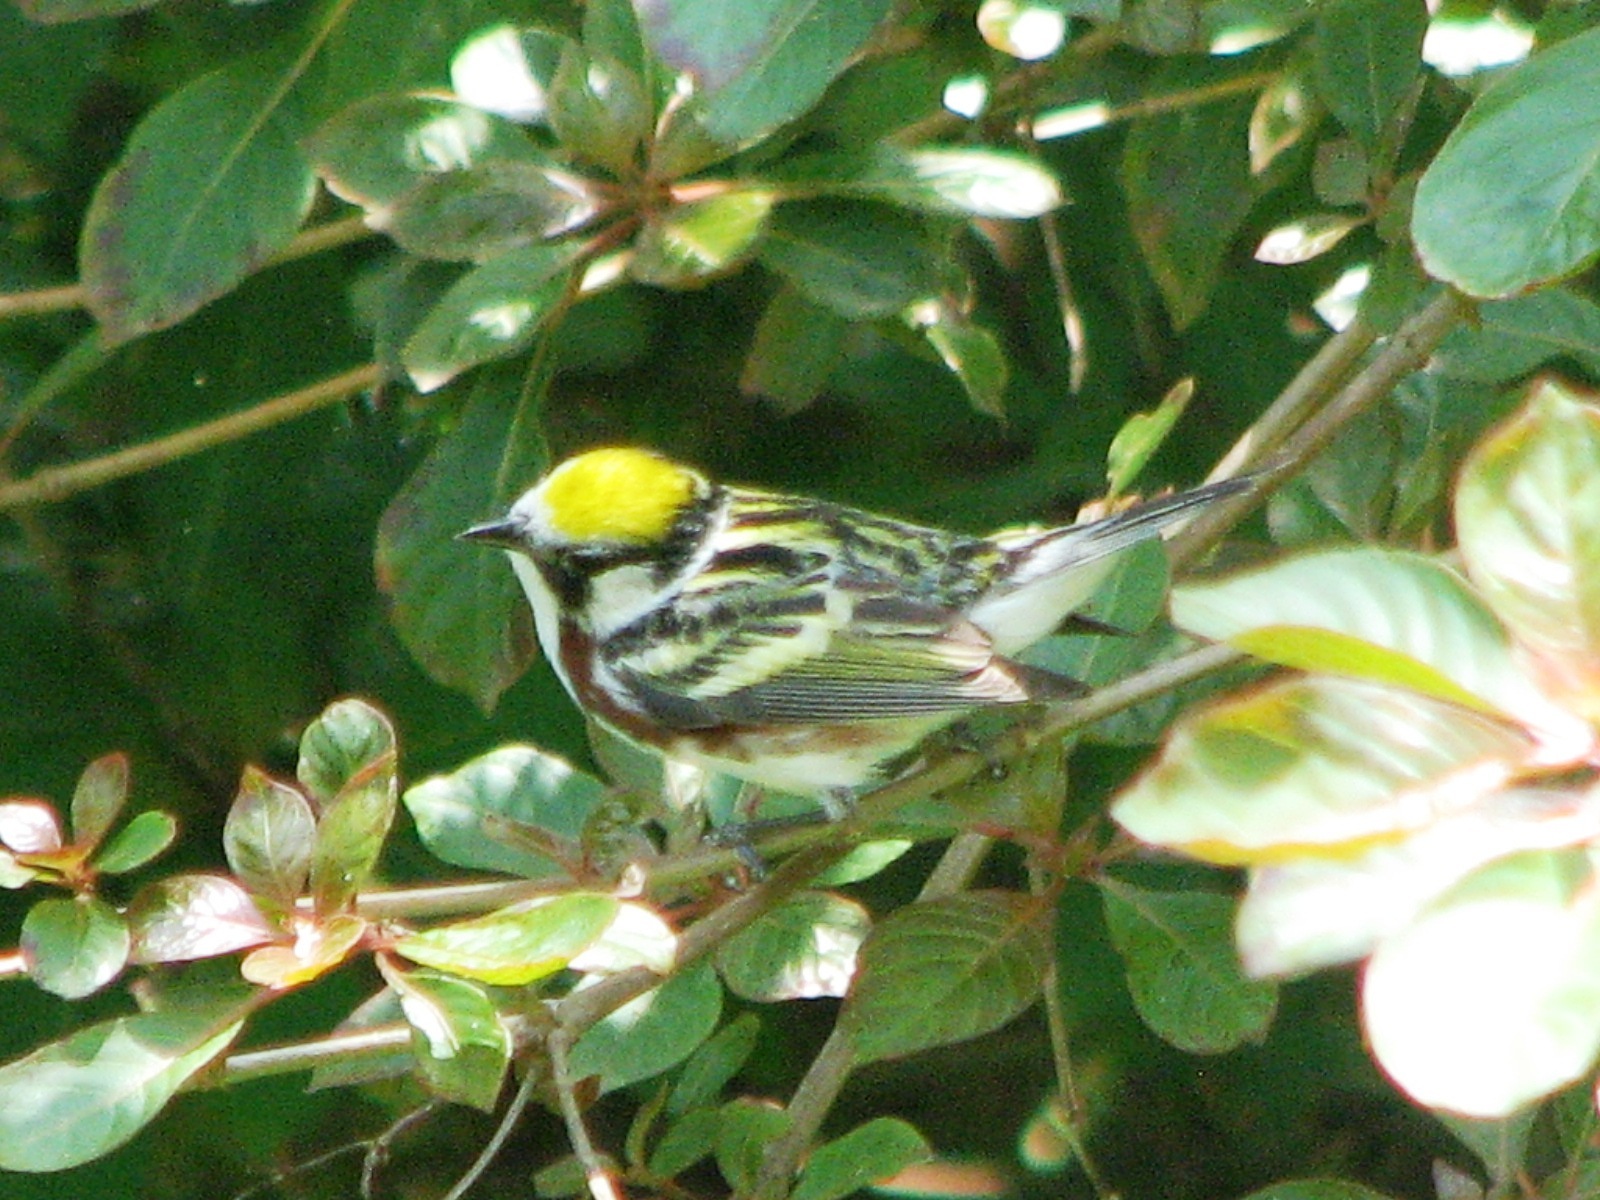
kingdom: Animalia
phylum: Chordata
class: Aves
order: Passeriformes
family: Parulidae
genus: Setophaga
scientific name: Setophaga pensylvanica
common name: Chestnut-sided warbler
